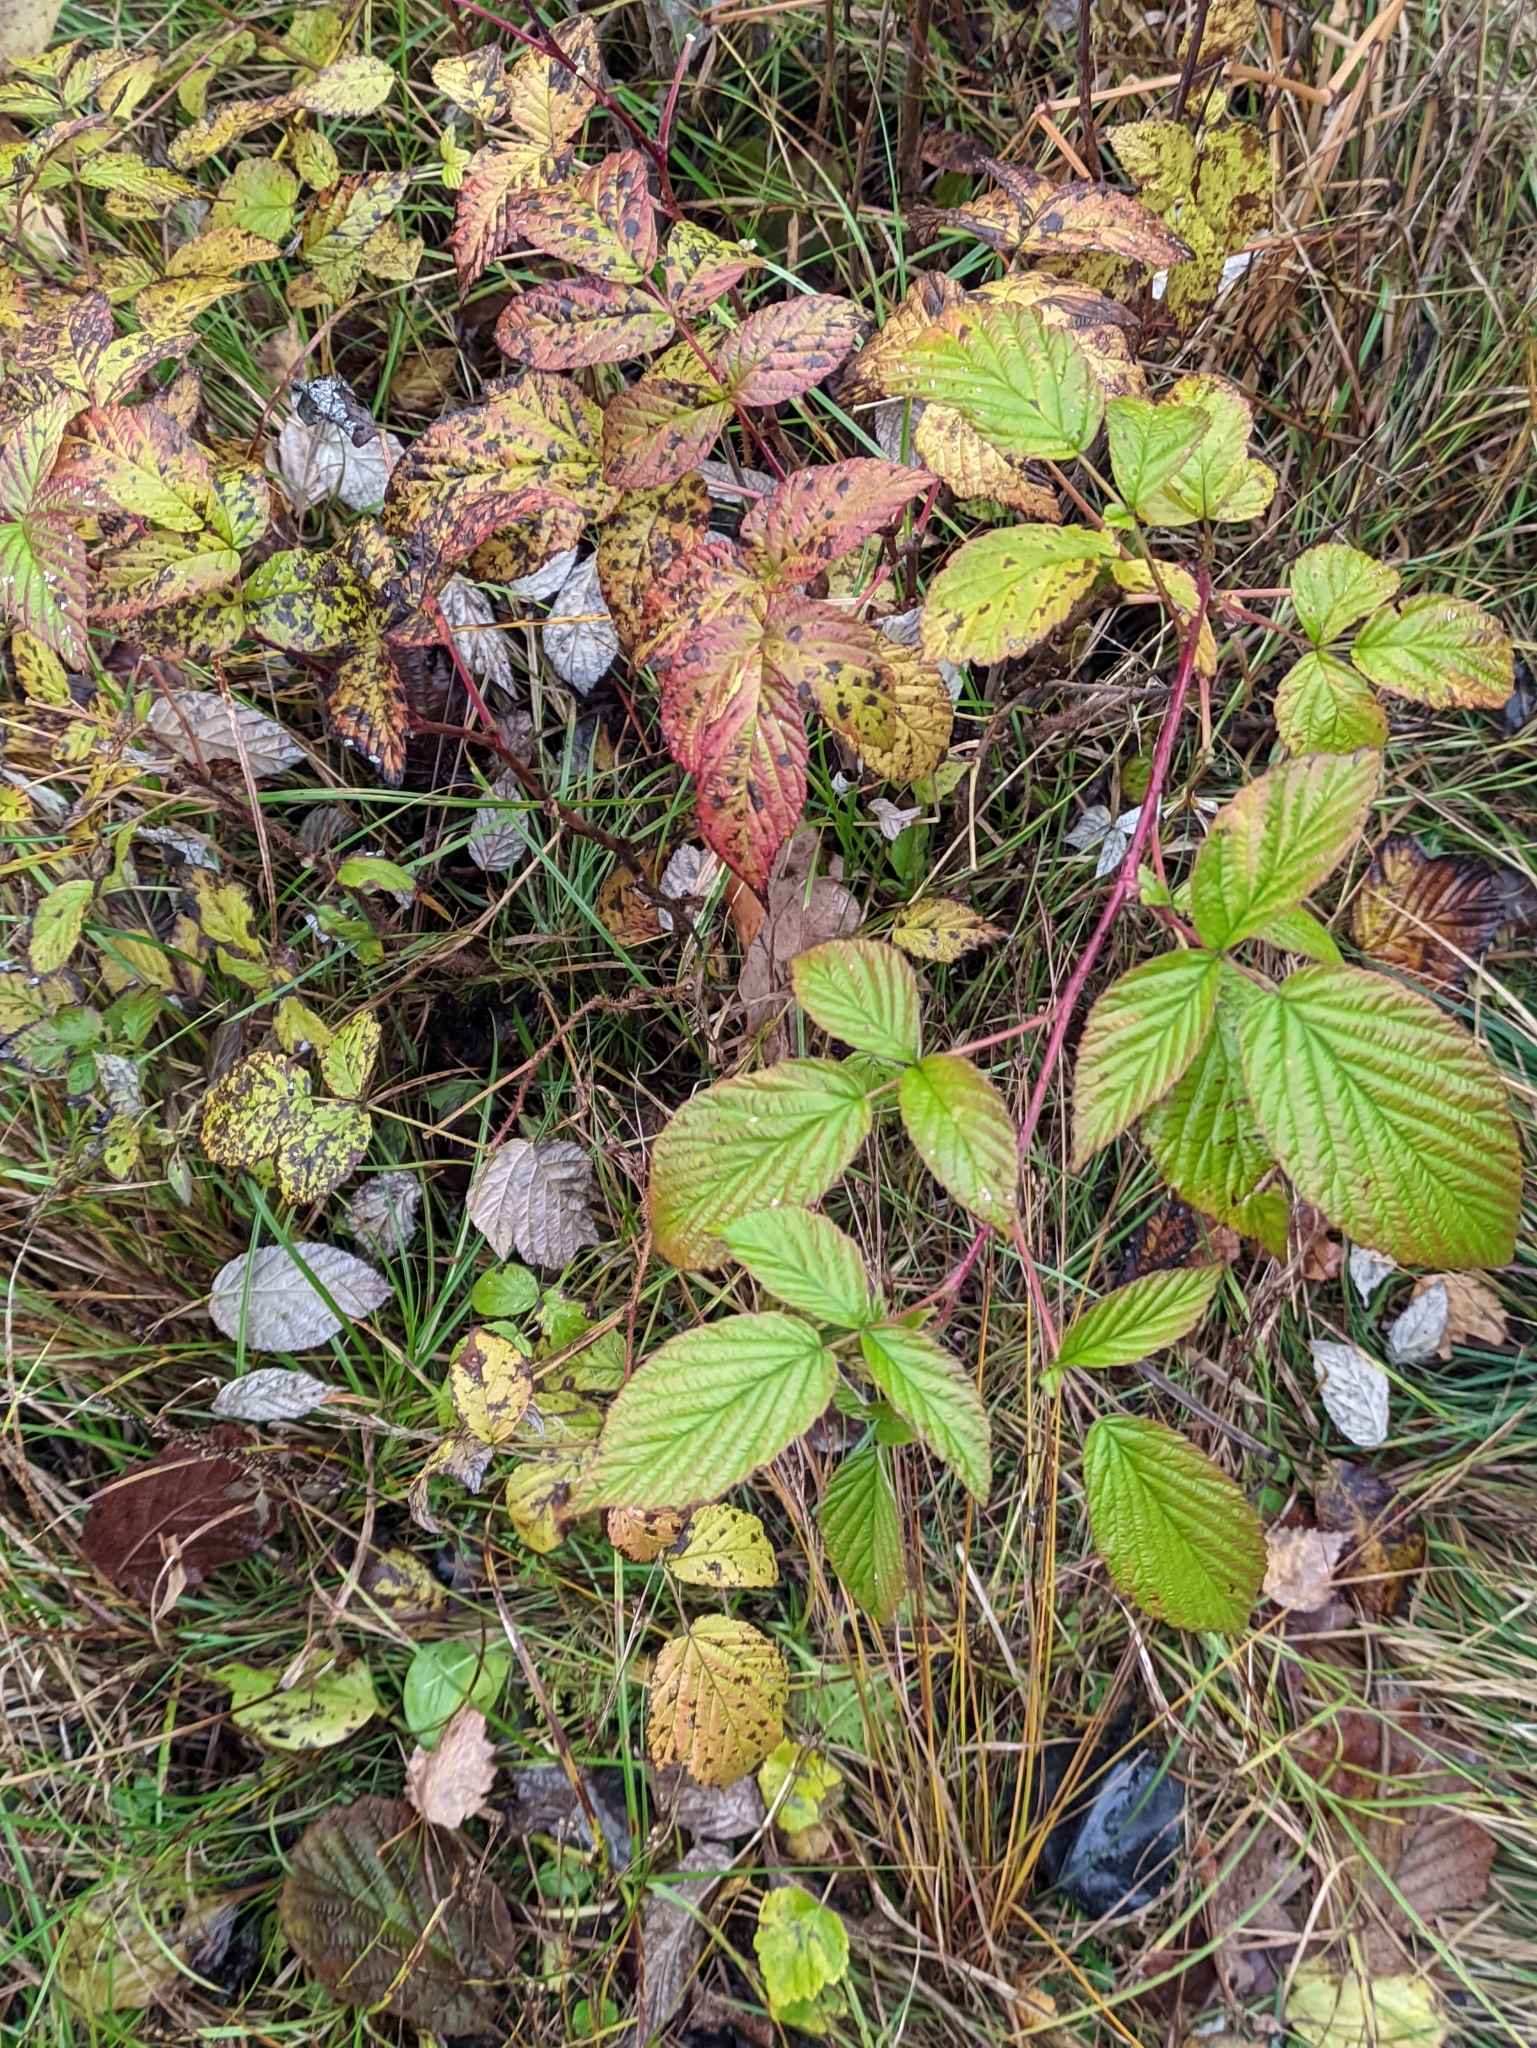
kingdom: Plantae
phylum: Tracheophyta
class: Magnoliopsida
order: Rosales
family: Rosaceae
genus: Rubus
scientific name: Rubus idaeus
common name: Raspberry
